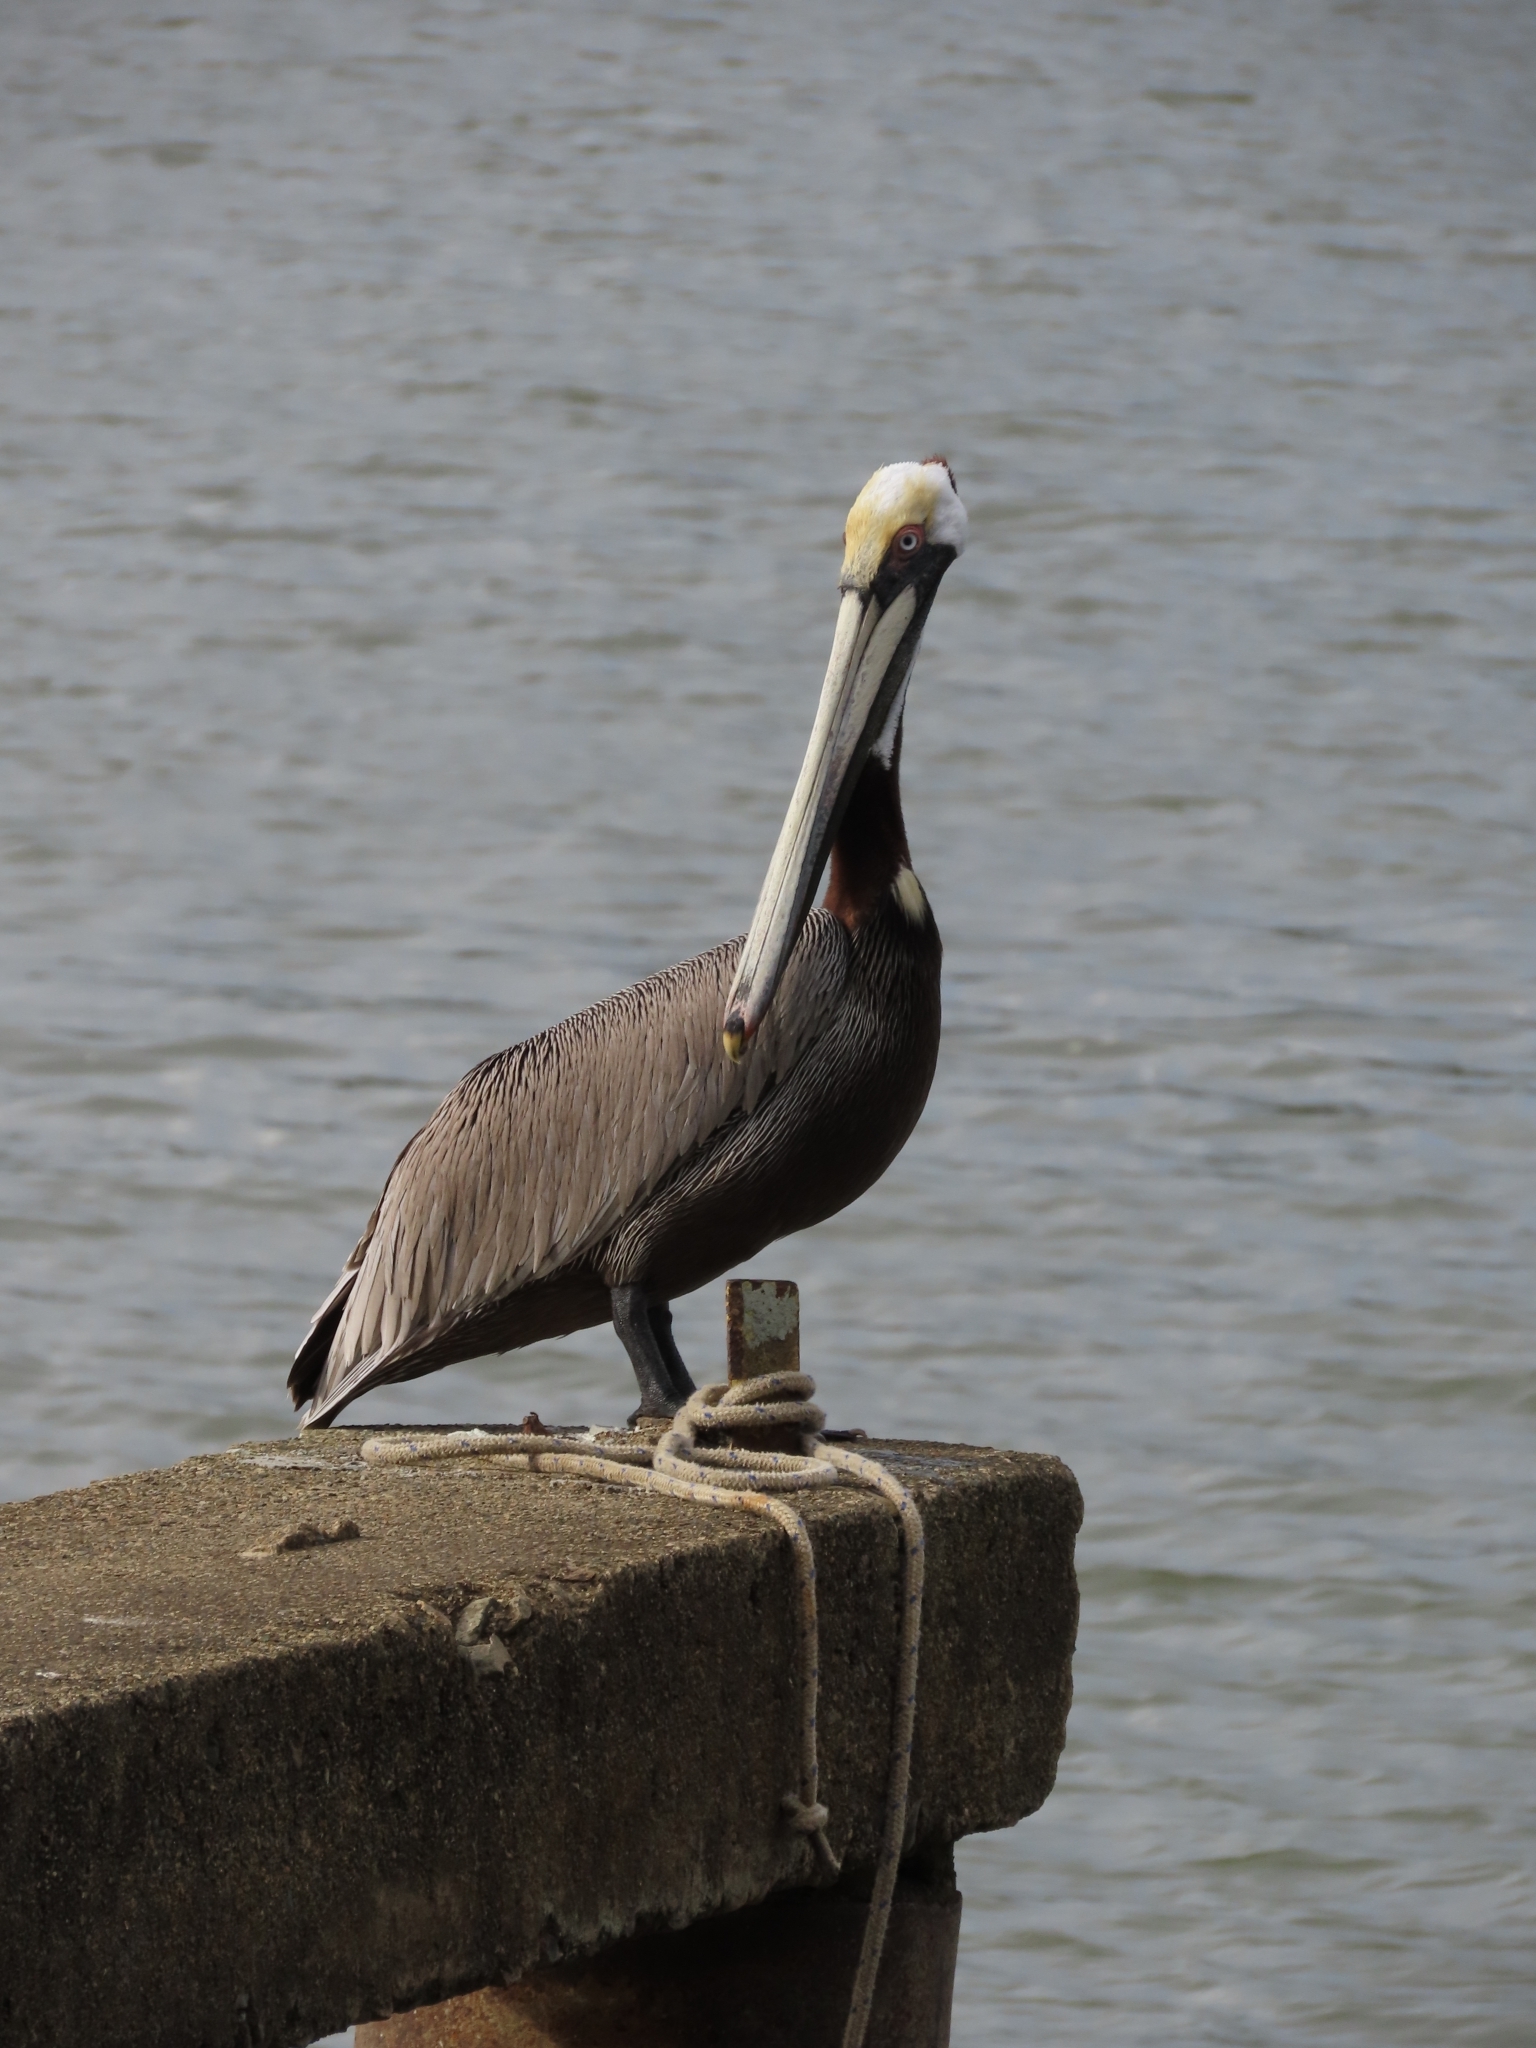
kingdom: Animalia
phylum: Chordata
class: Aves
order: Pelecaniformes
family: Pelecanidae
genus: Pelecanus
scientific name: Pelecanus occidentalis
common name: Brown pelican
